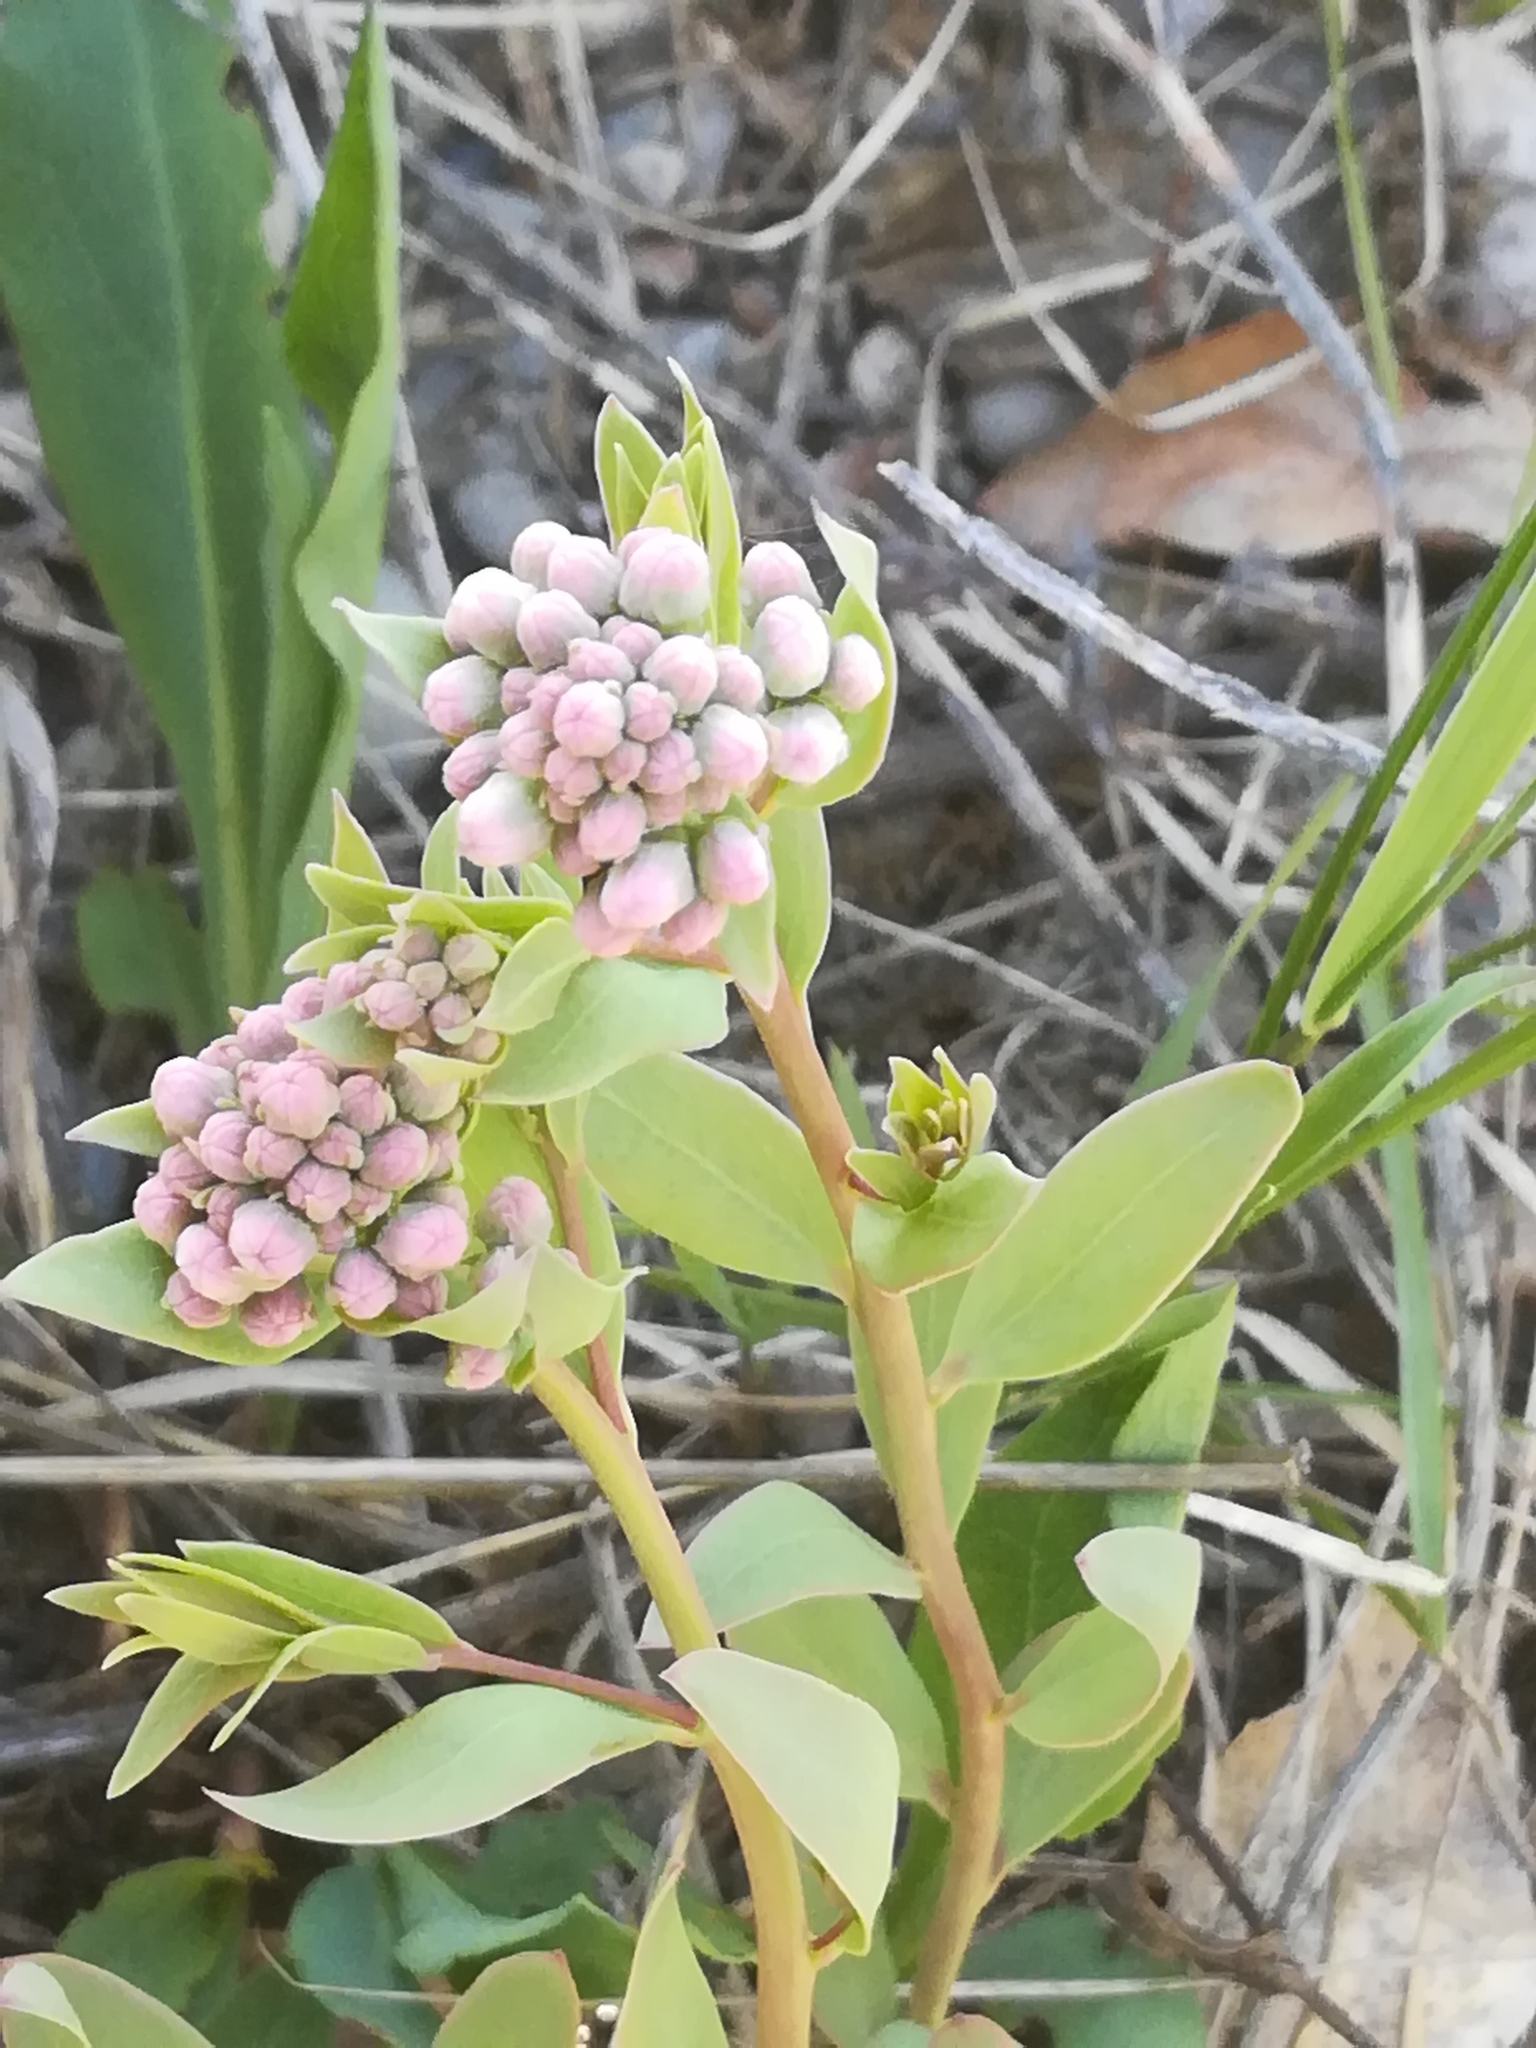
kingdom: Plantae
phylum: Tracheophyta
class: Magnoliopsida
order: Santalales
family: Comandraceae
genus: Comandra
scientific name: Comandra umbellata
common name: Bastard toadflax
